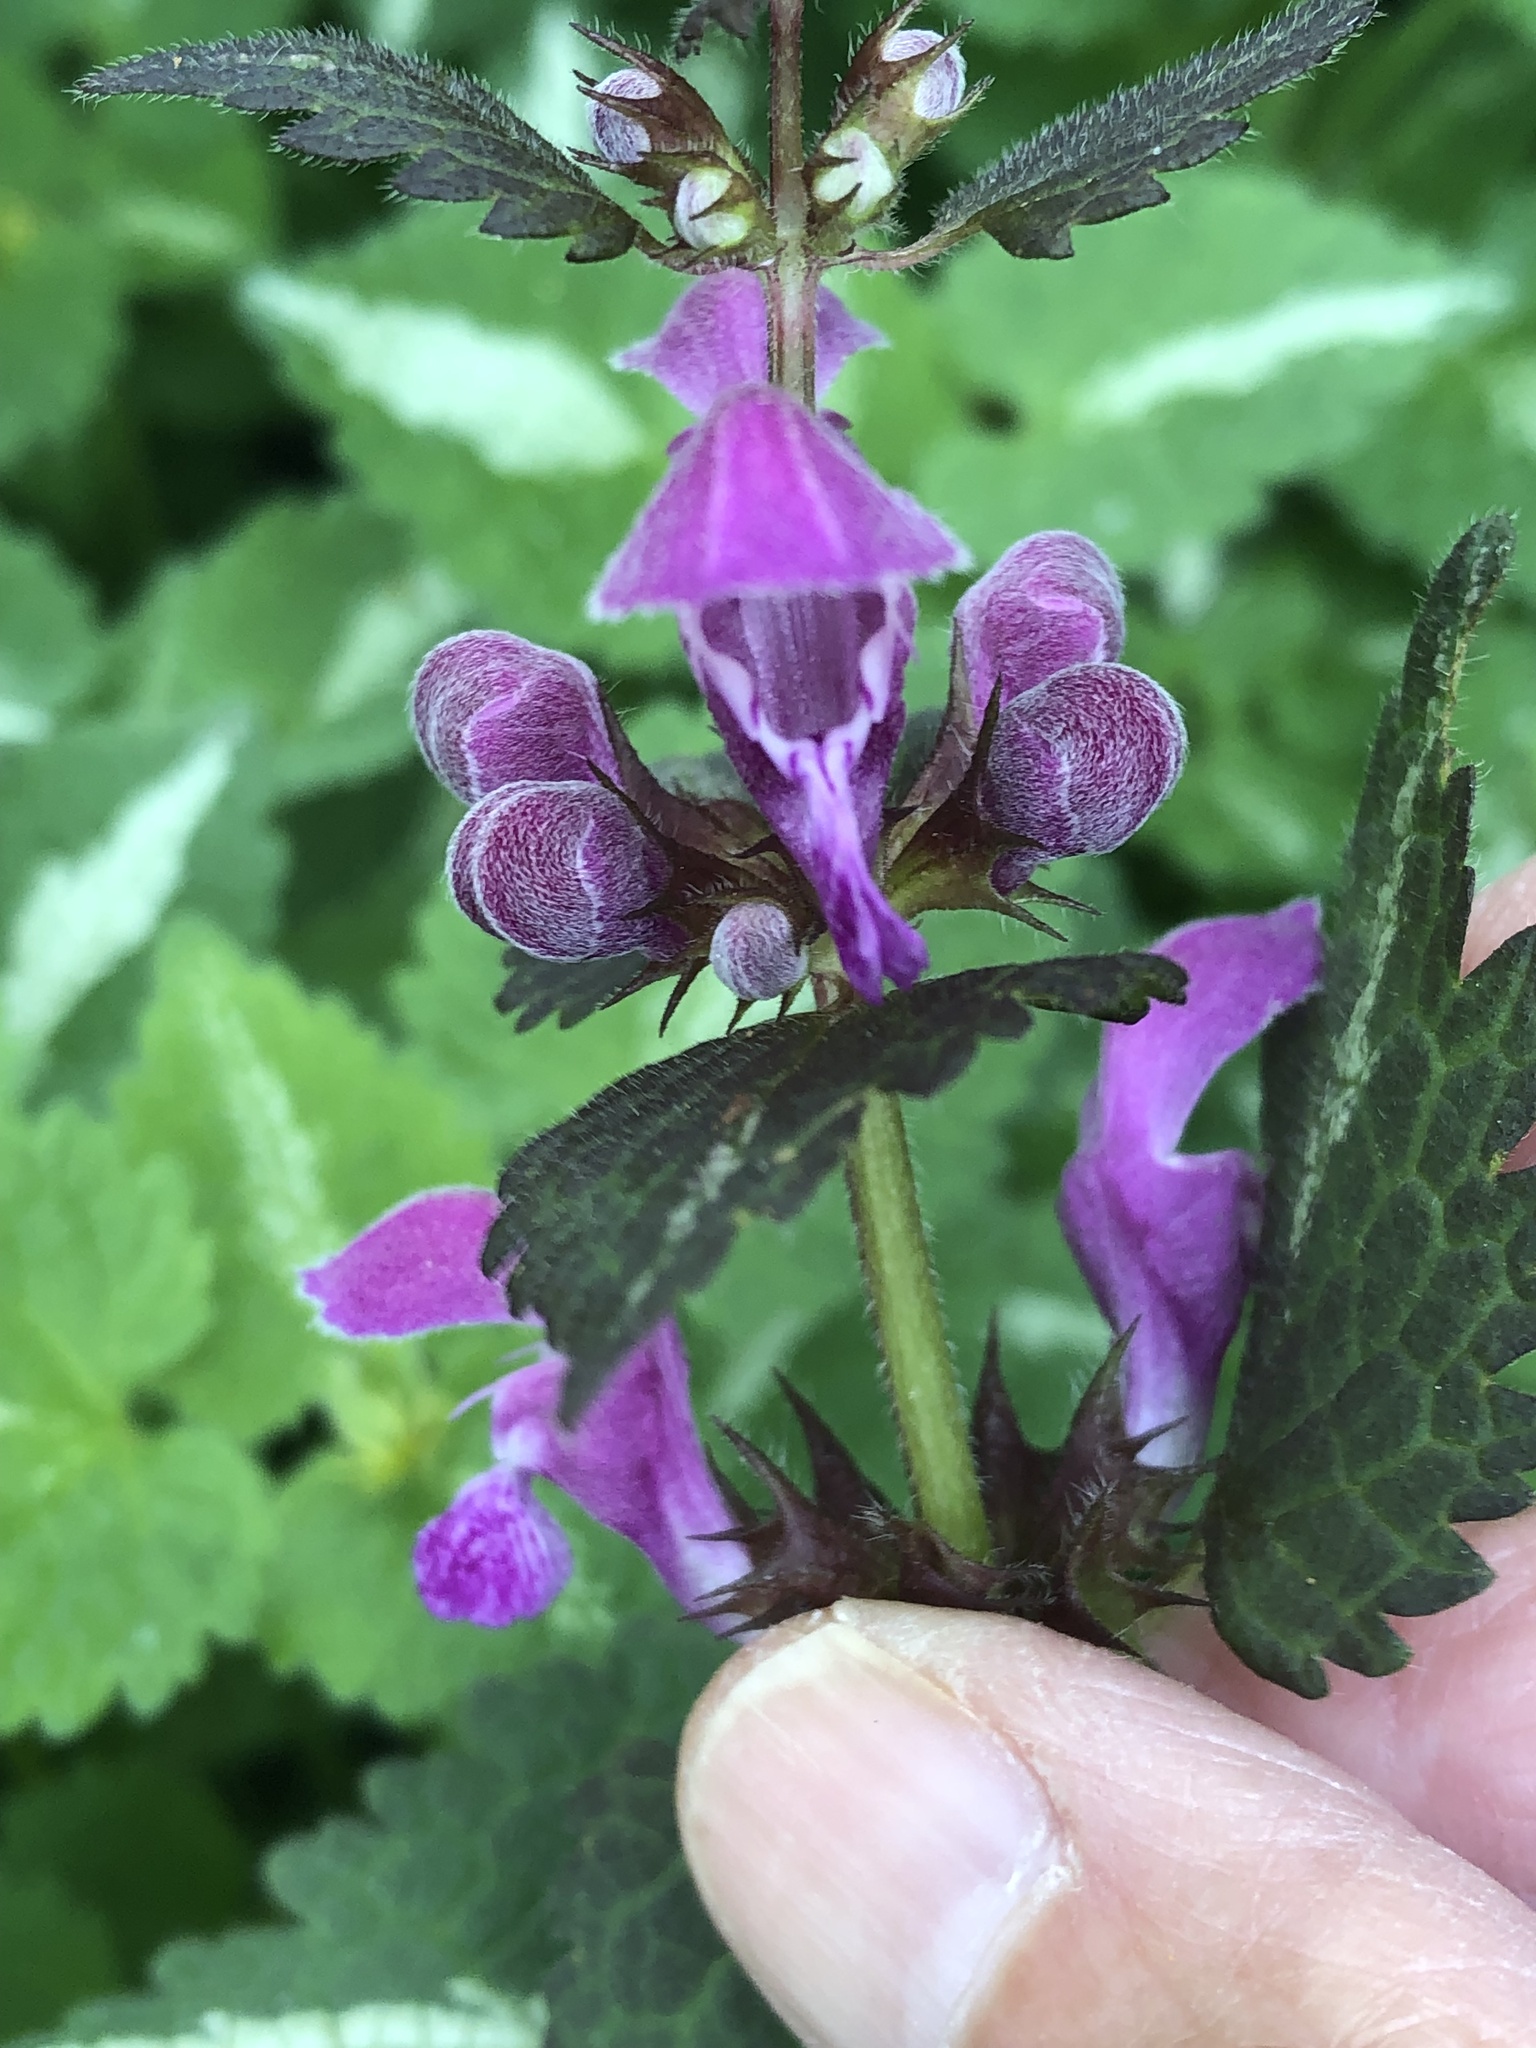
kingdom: Plantae
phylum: Tracheophyta
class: Magnoliopsida
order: Lamiales
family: Lamiaceae
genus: Lamium
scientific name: Lamium maculatum
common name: Spotted dead-nettle
